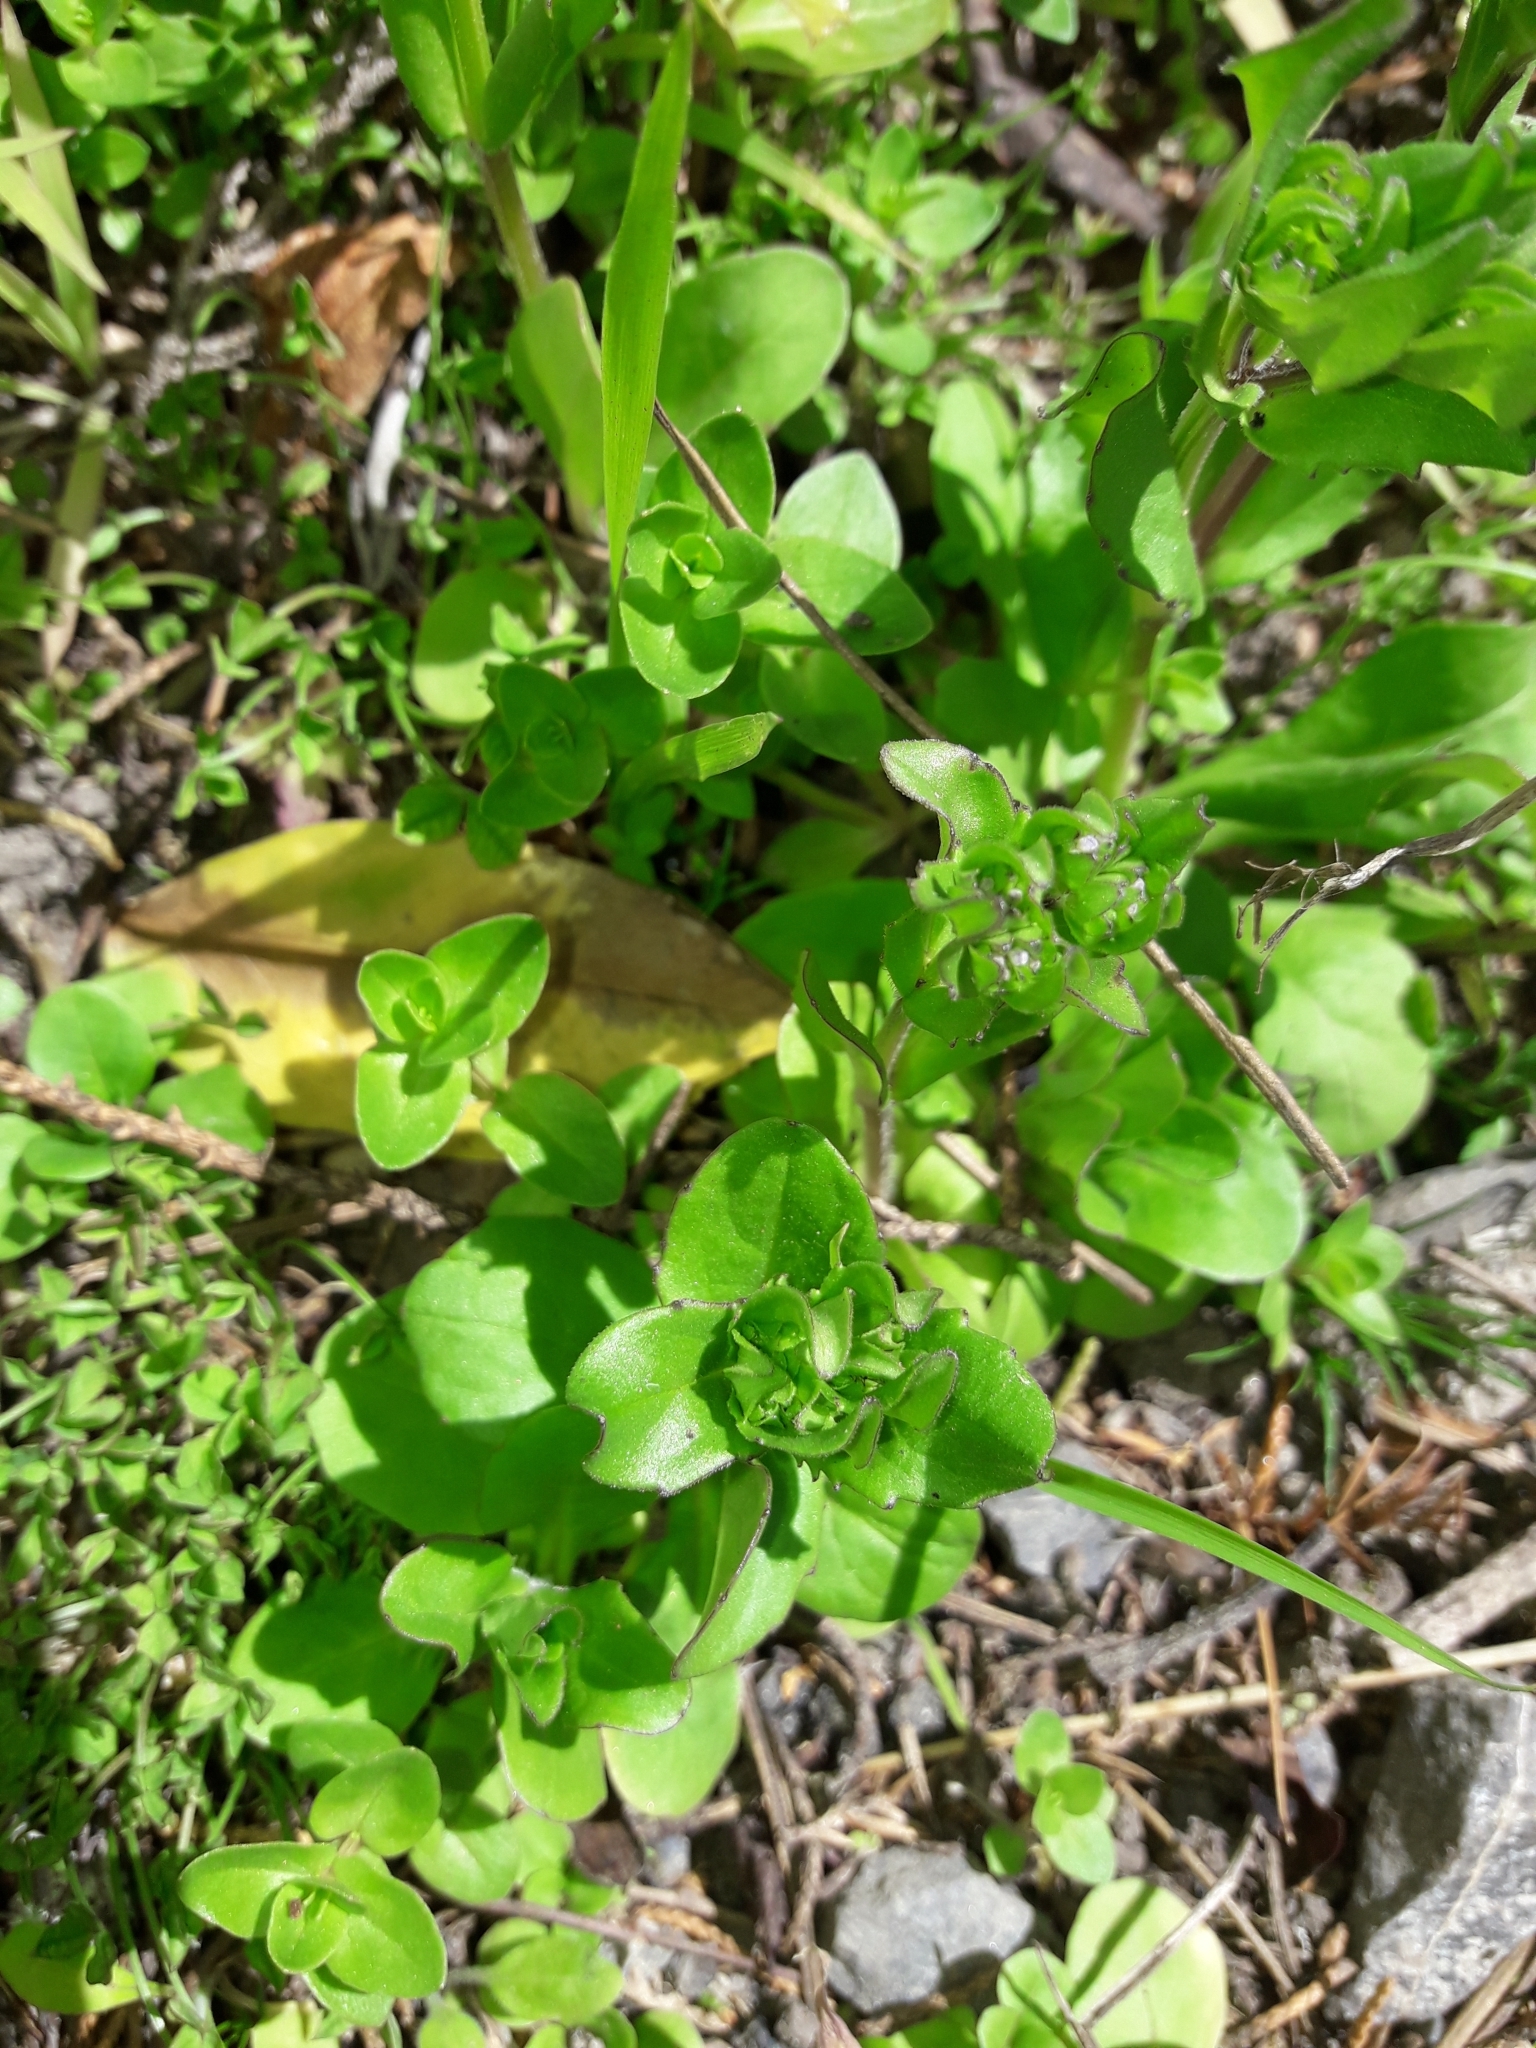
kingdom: Plantae
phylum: Tracheophyta
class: Magnoliopsida
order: Dipsacales
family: Caprifoliaceae
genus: Valerianella
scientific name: Valerianella locusta
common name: Common cornsalad
